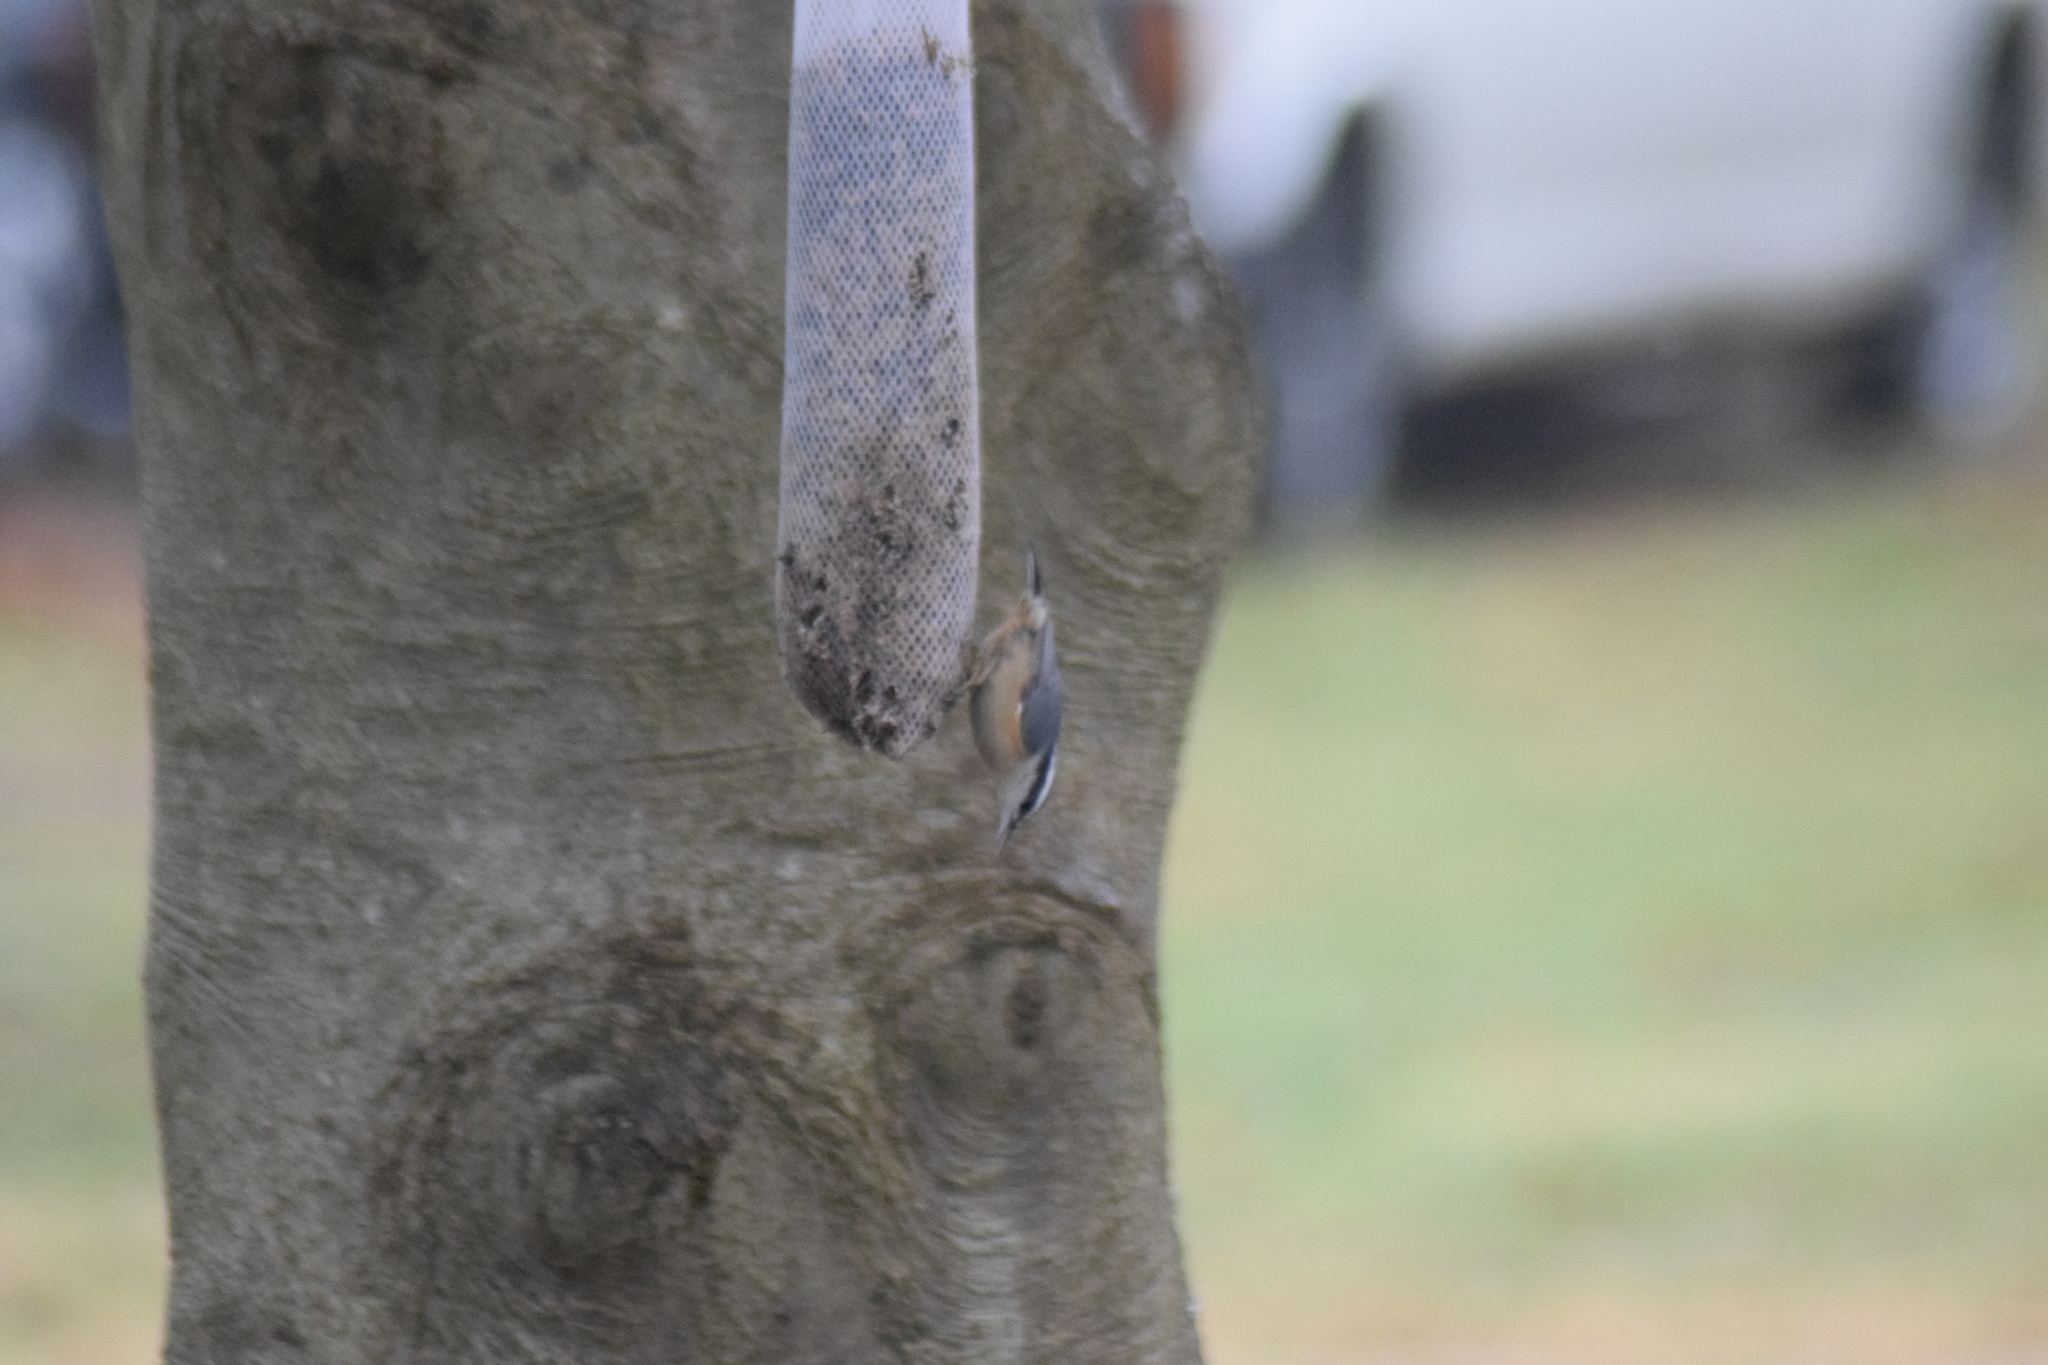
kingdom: Animalia
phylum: Chordata
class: Aves
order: Passeriformes
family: Sittidae
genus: Sitta
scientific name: Sitta canadensis
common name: Red-breasted nuthatch
